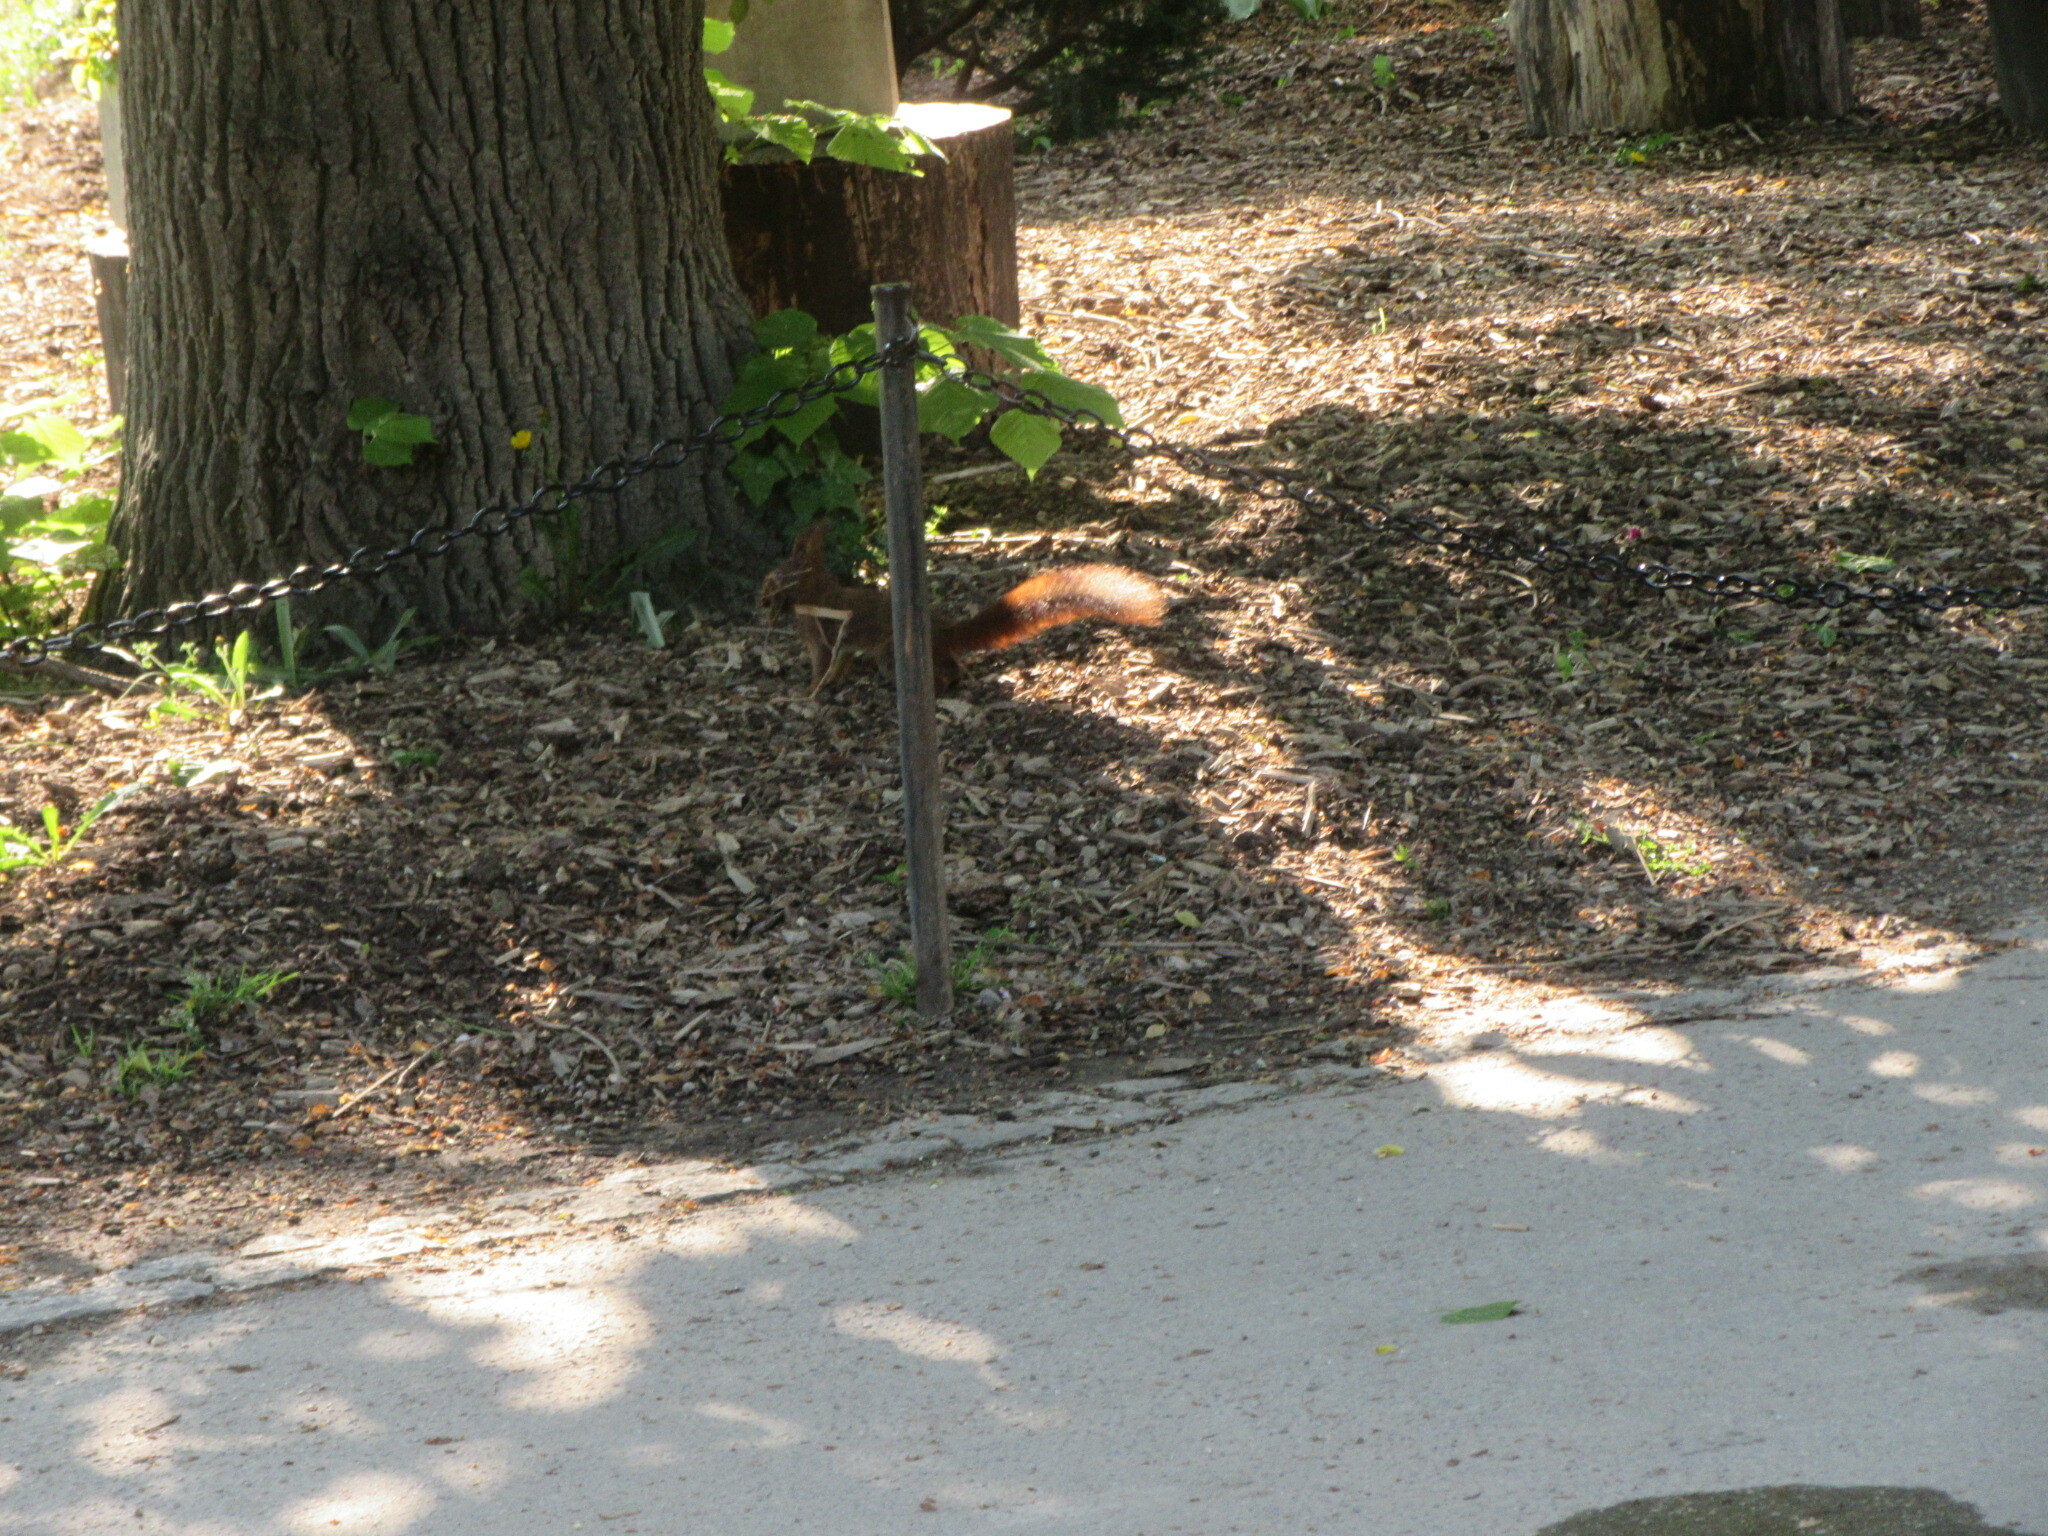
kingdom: Animalia
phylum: Chordata
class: Mammalia
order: Rodentia
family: Sciuridae
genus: Sciurus
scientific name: Sciurus vulgaris
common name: Eurasian red squirrel
